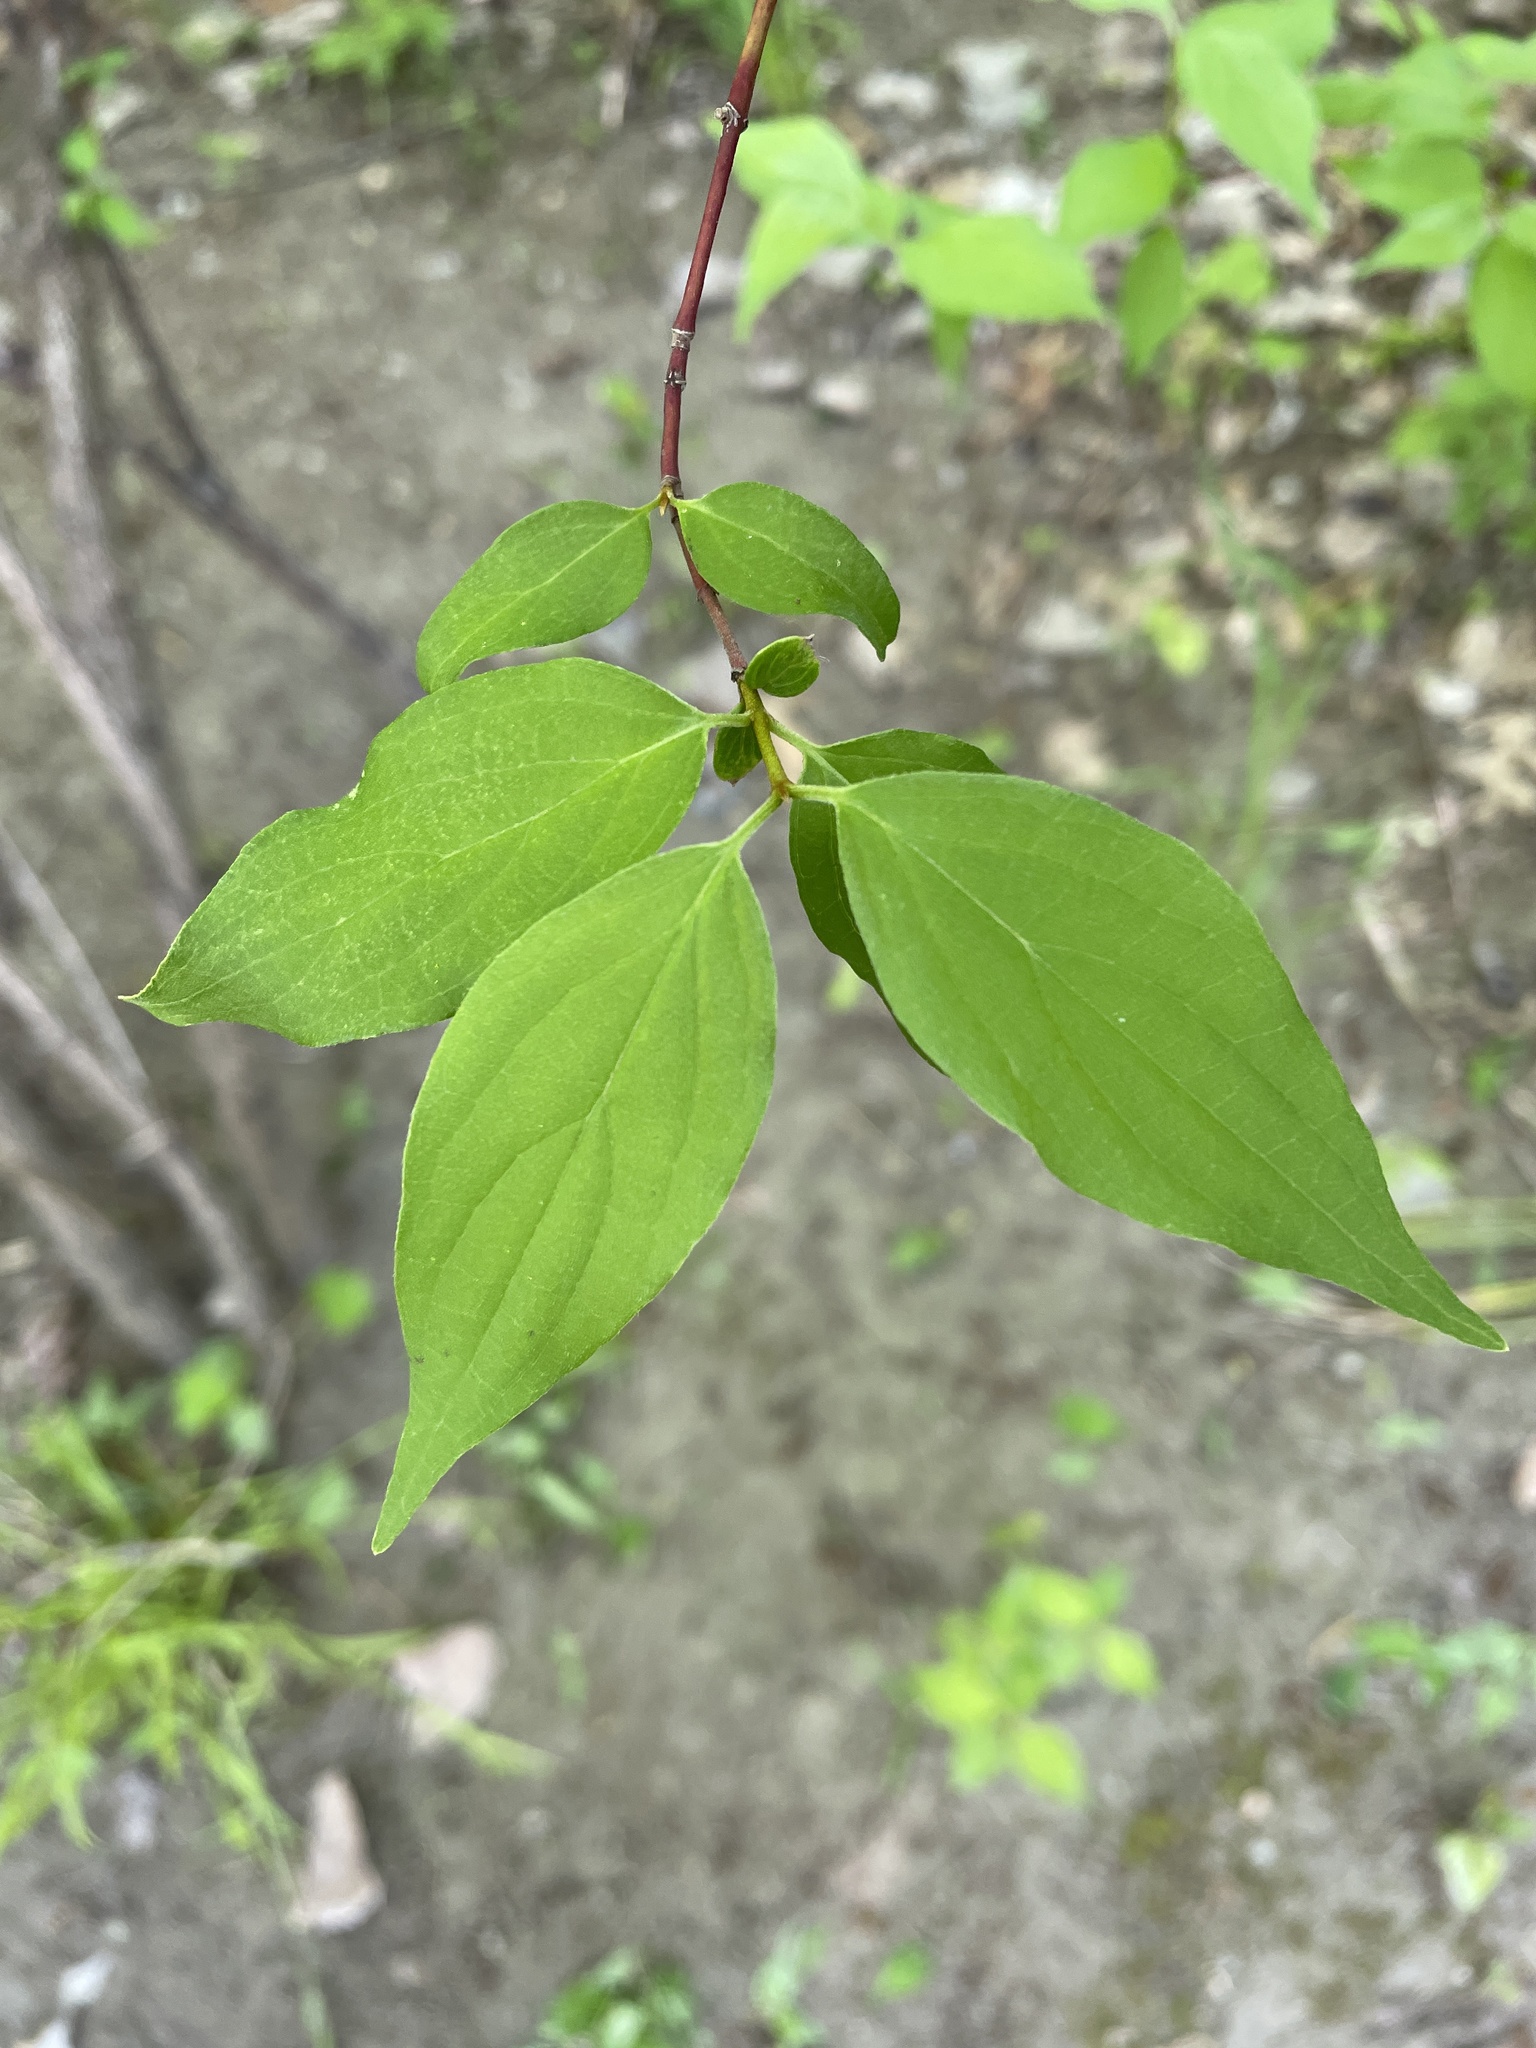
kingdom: Plantae
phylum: Tracheophyta
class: Magnoliopsida
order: Cornales
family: Cornaceae
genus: Cornus
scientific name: Cornus drummondii
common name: Rough-leaf dogwood
